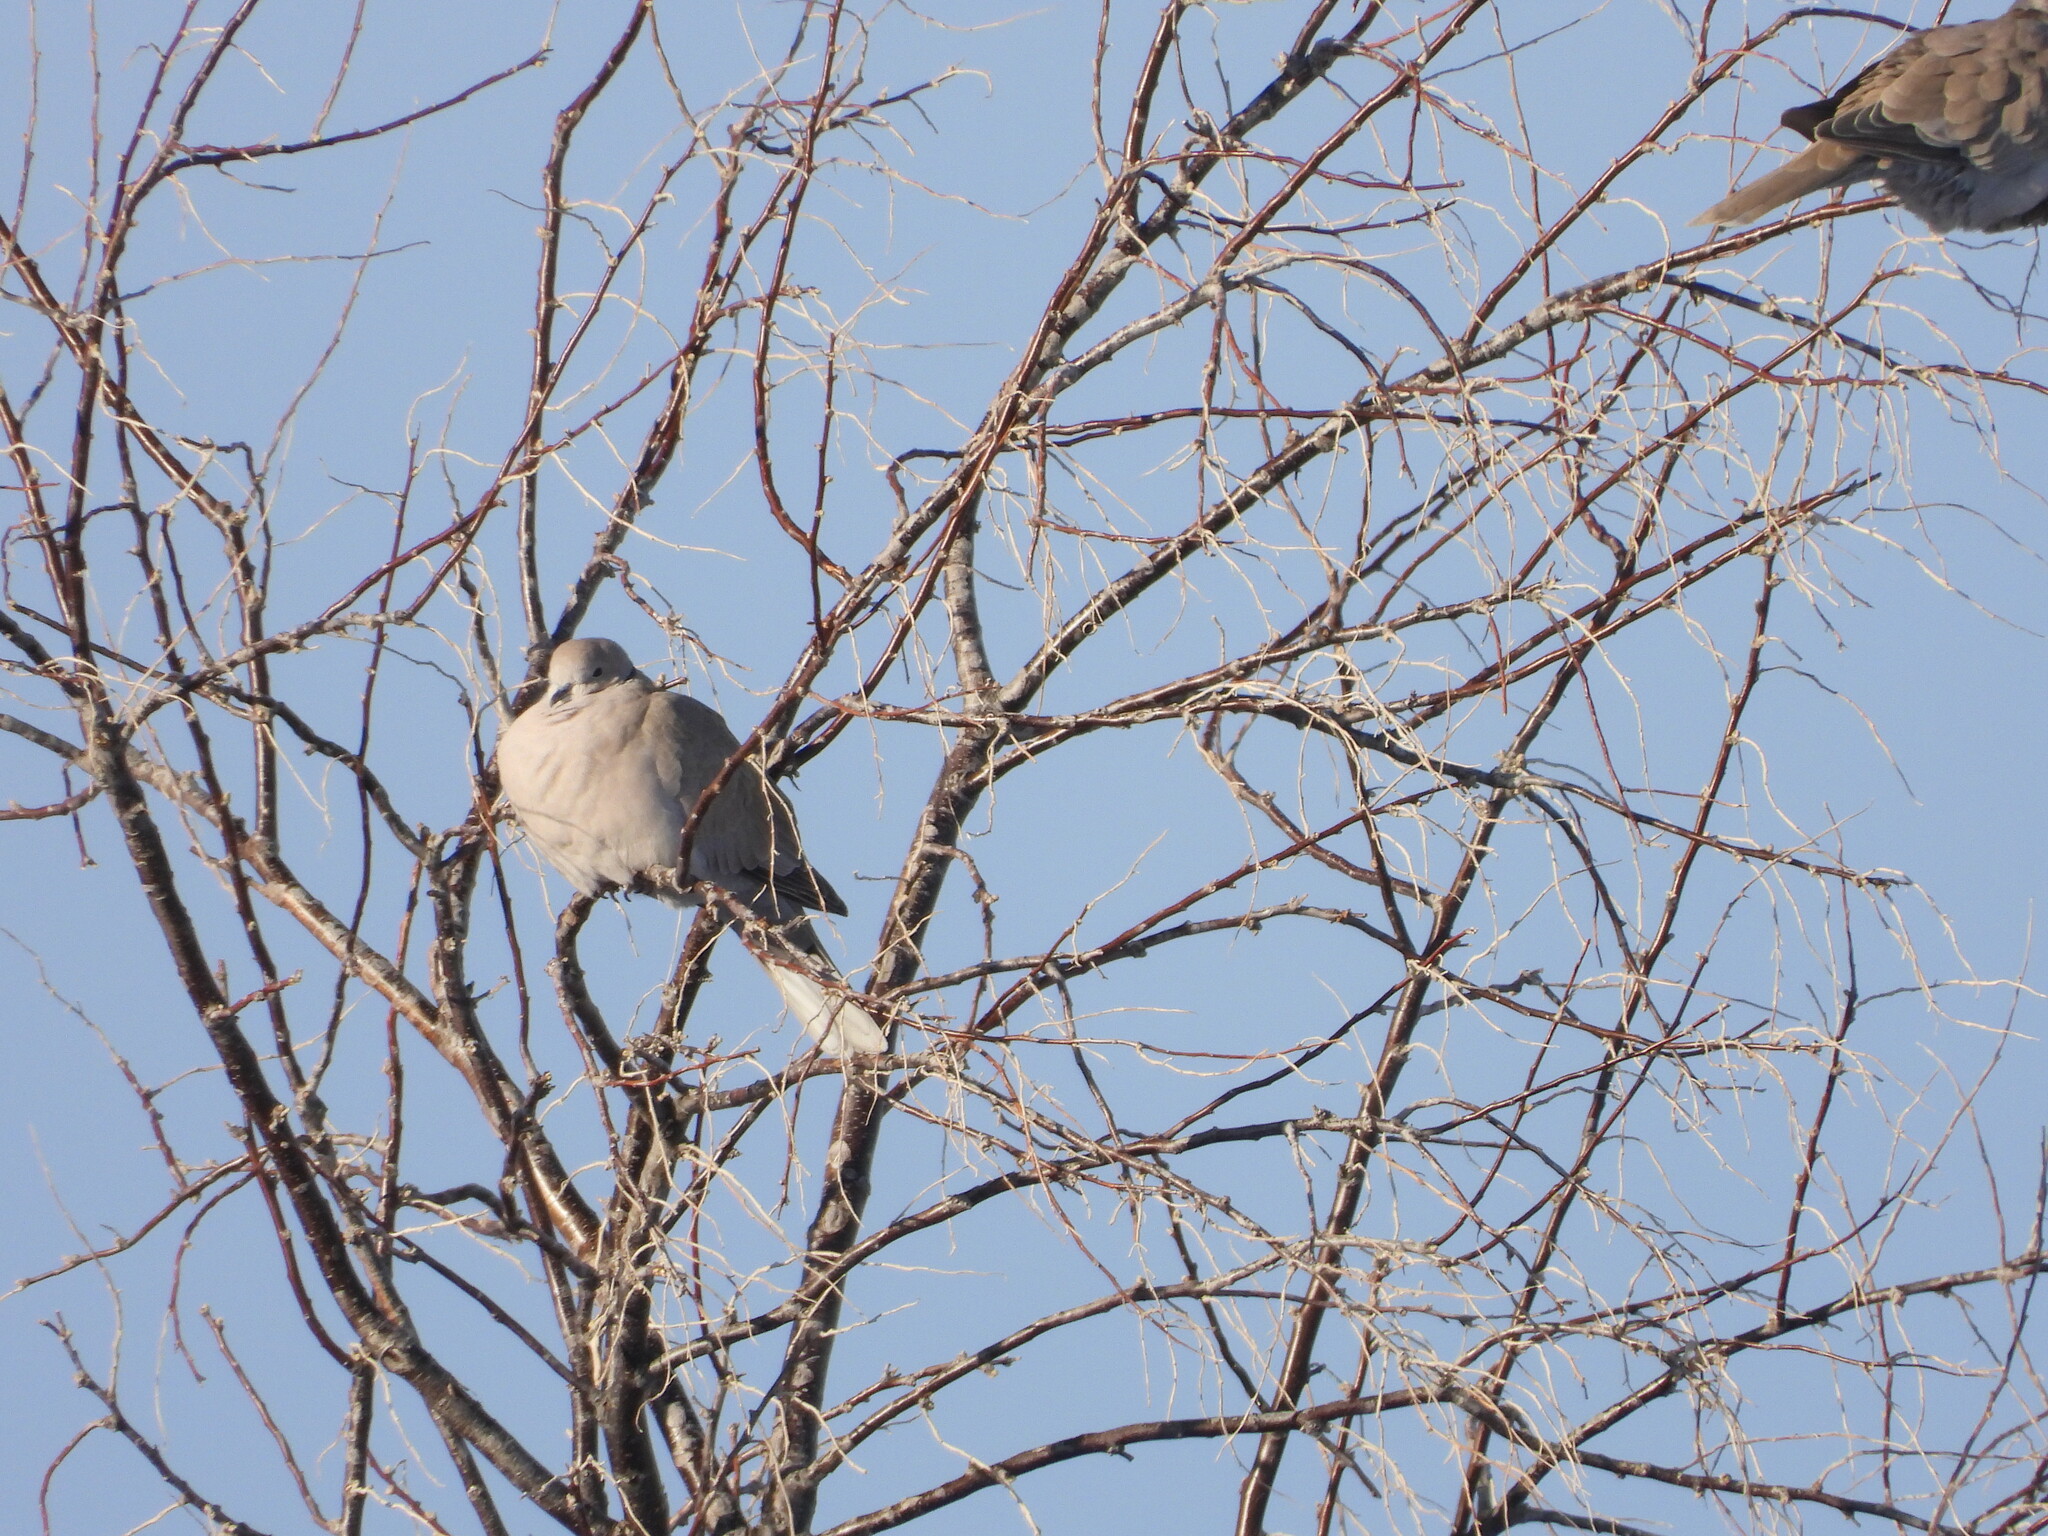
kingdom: Animalia
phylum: Chordata
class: Aves
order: Columbiformes
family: Columbidae
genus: Streptopelia
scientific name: Streptopelia decaocto
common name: Eurasian collared dove
